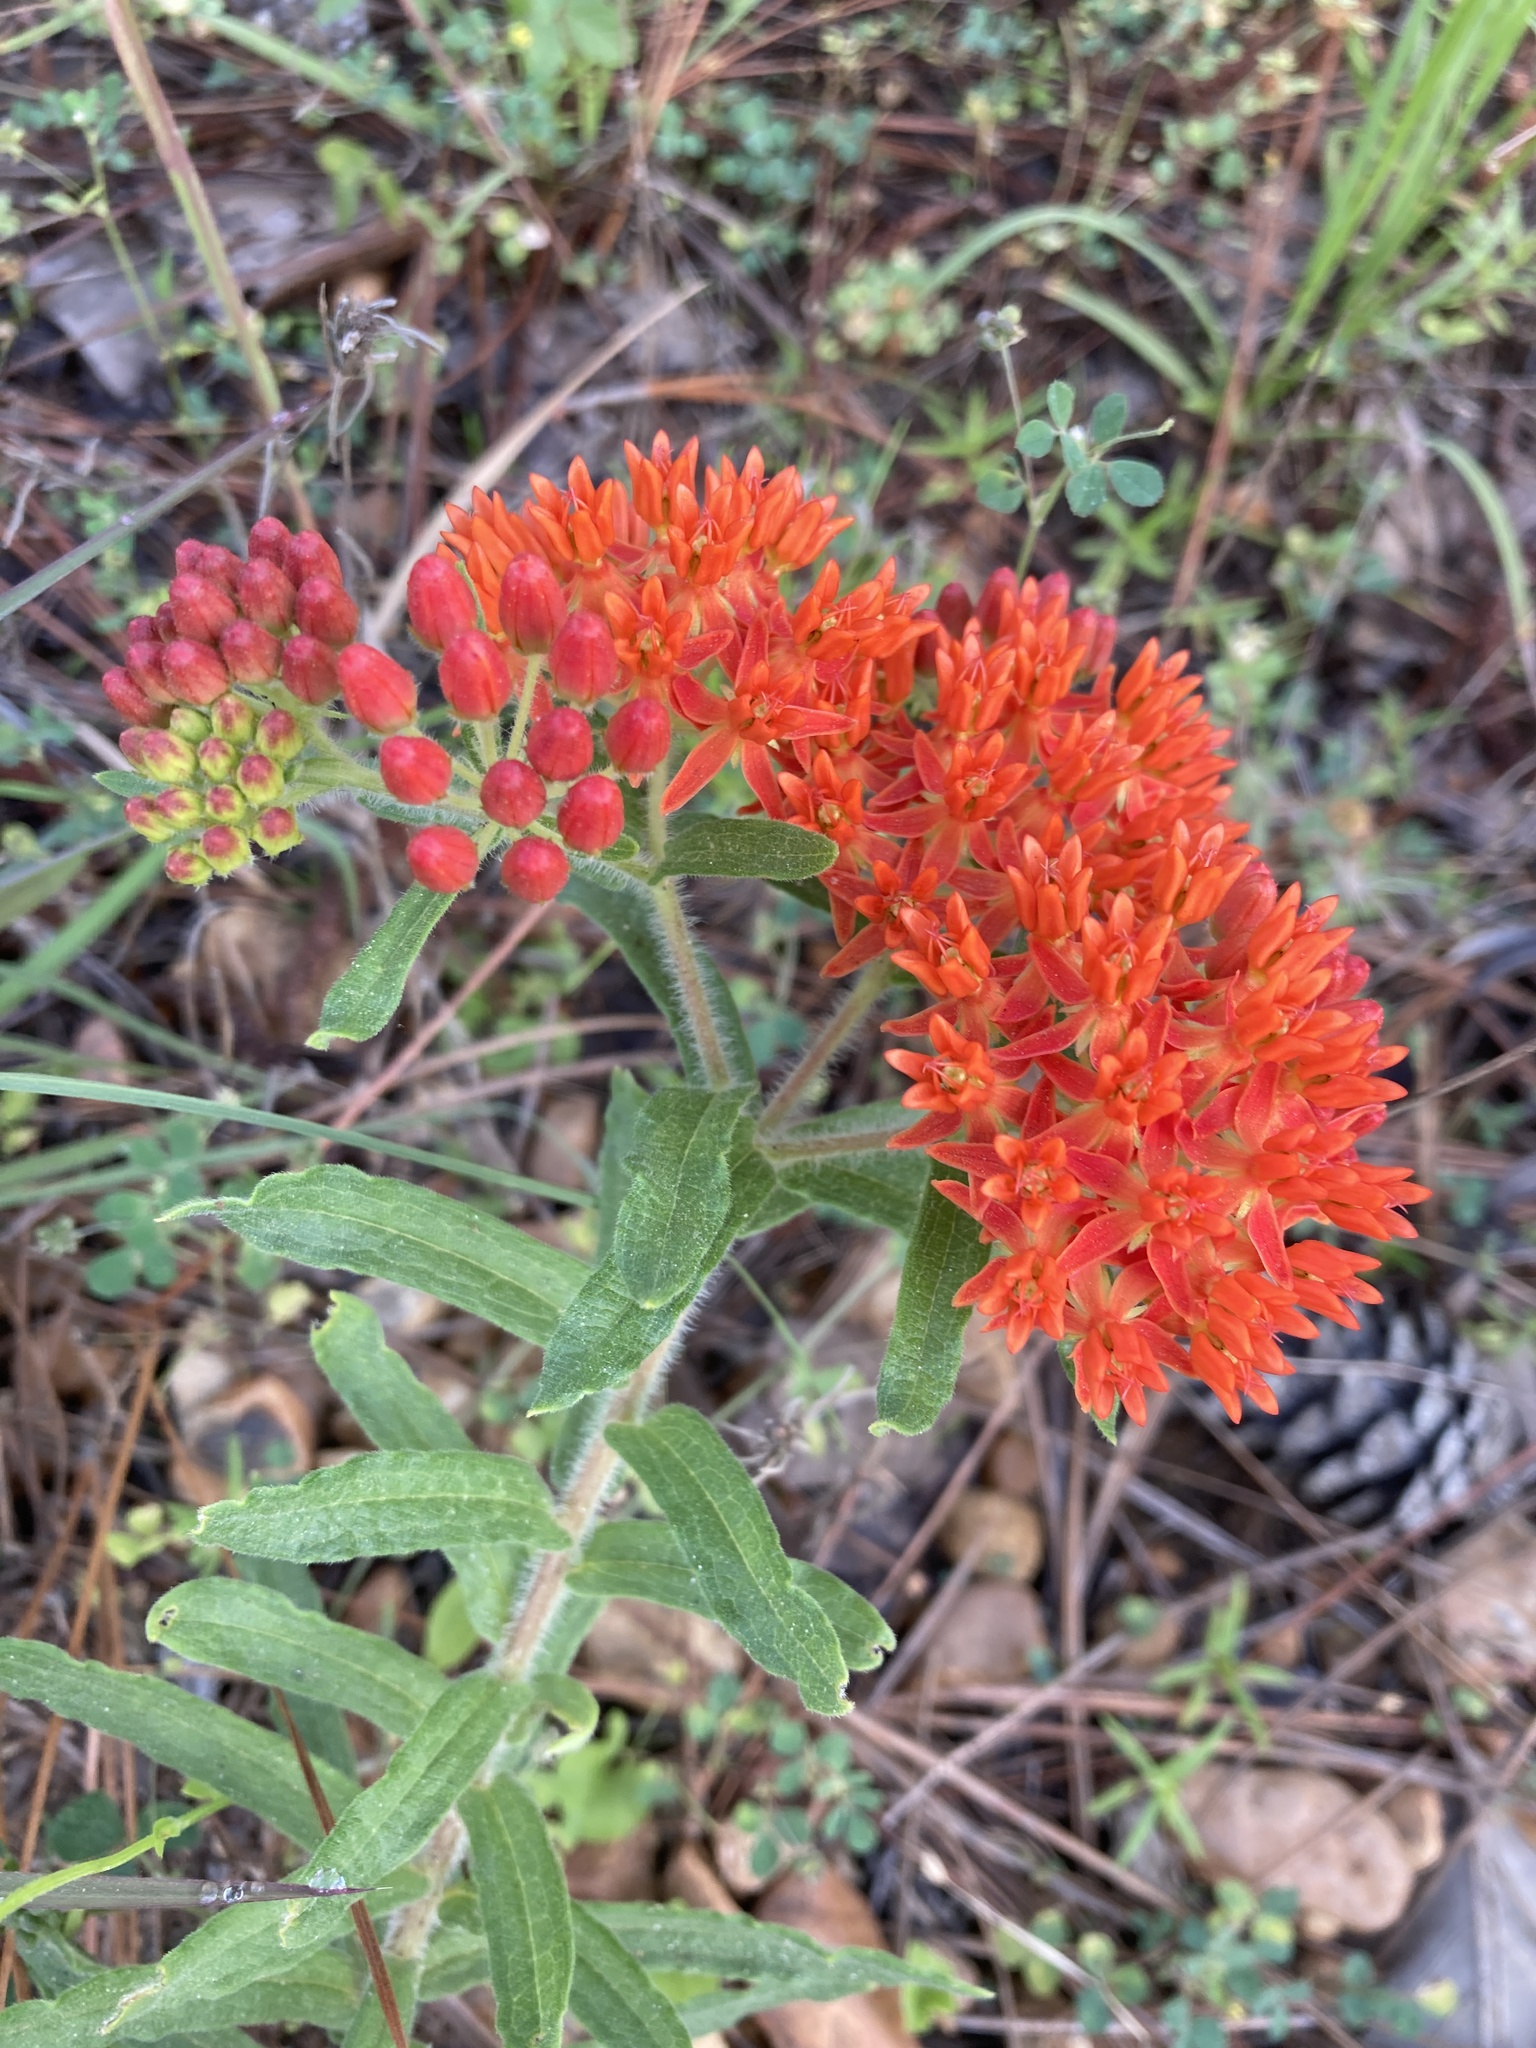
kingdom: Plantae
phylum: Tracheophyta
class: Magnoliopsida
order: Gentianales
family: Apocynaceae
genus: Asclepias
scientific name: Asclepias tuberosa
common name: Butterfly milkweed
